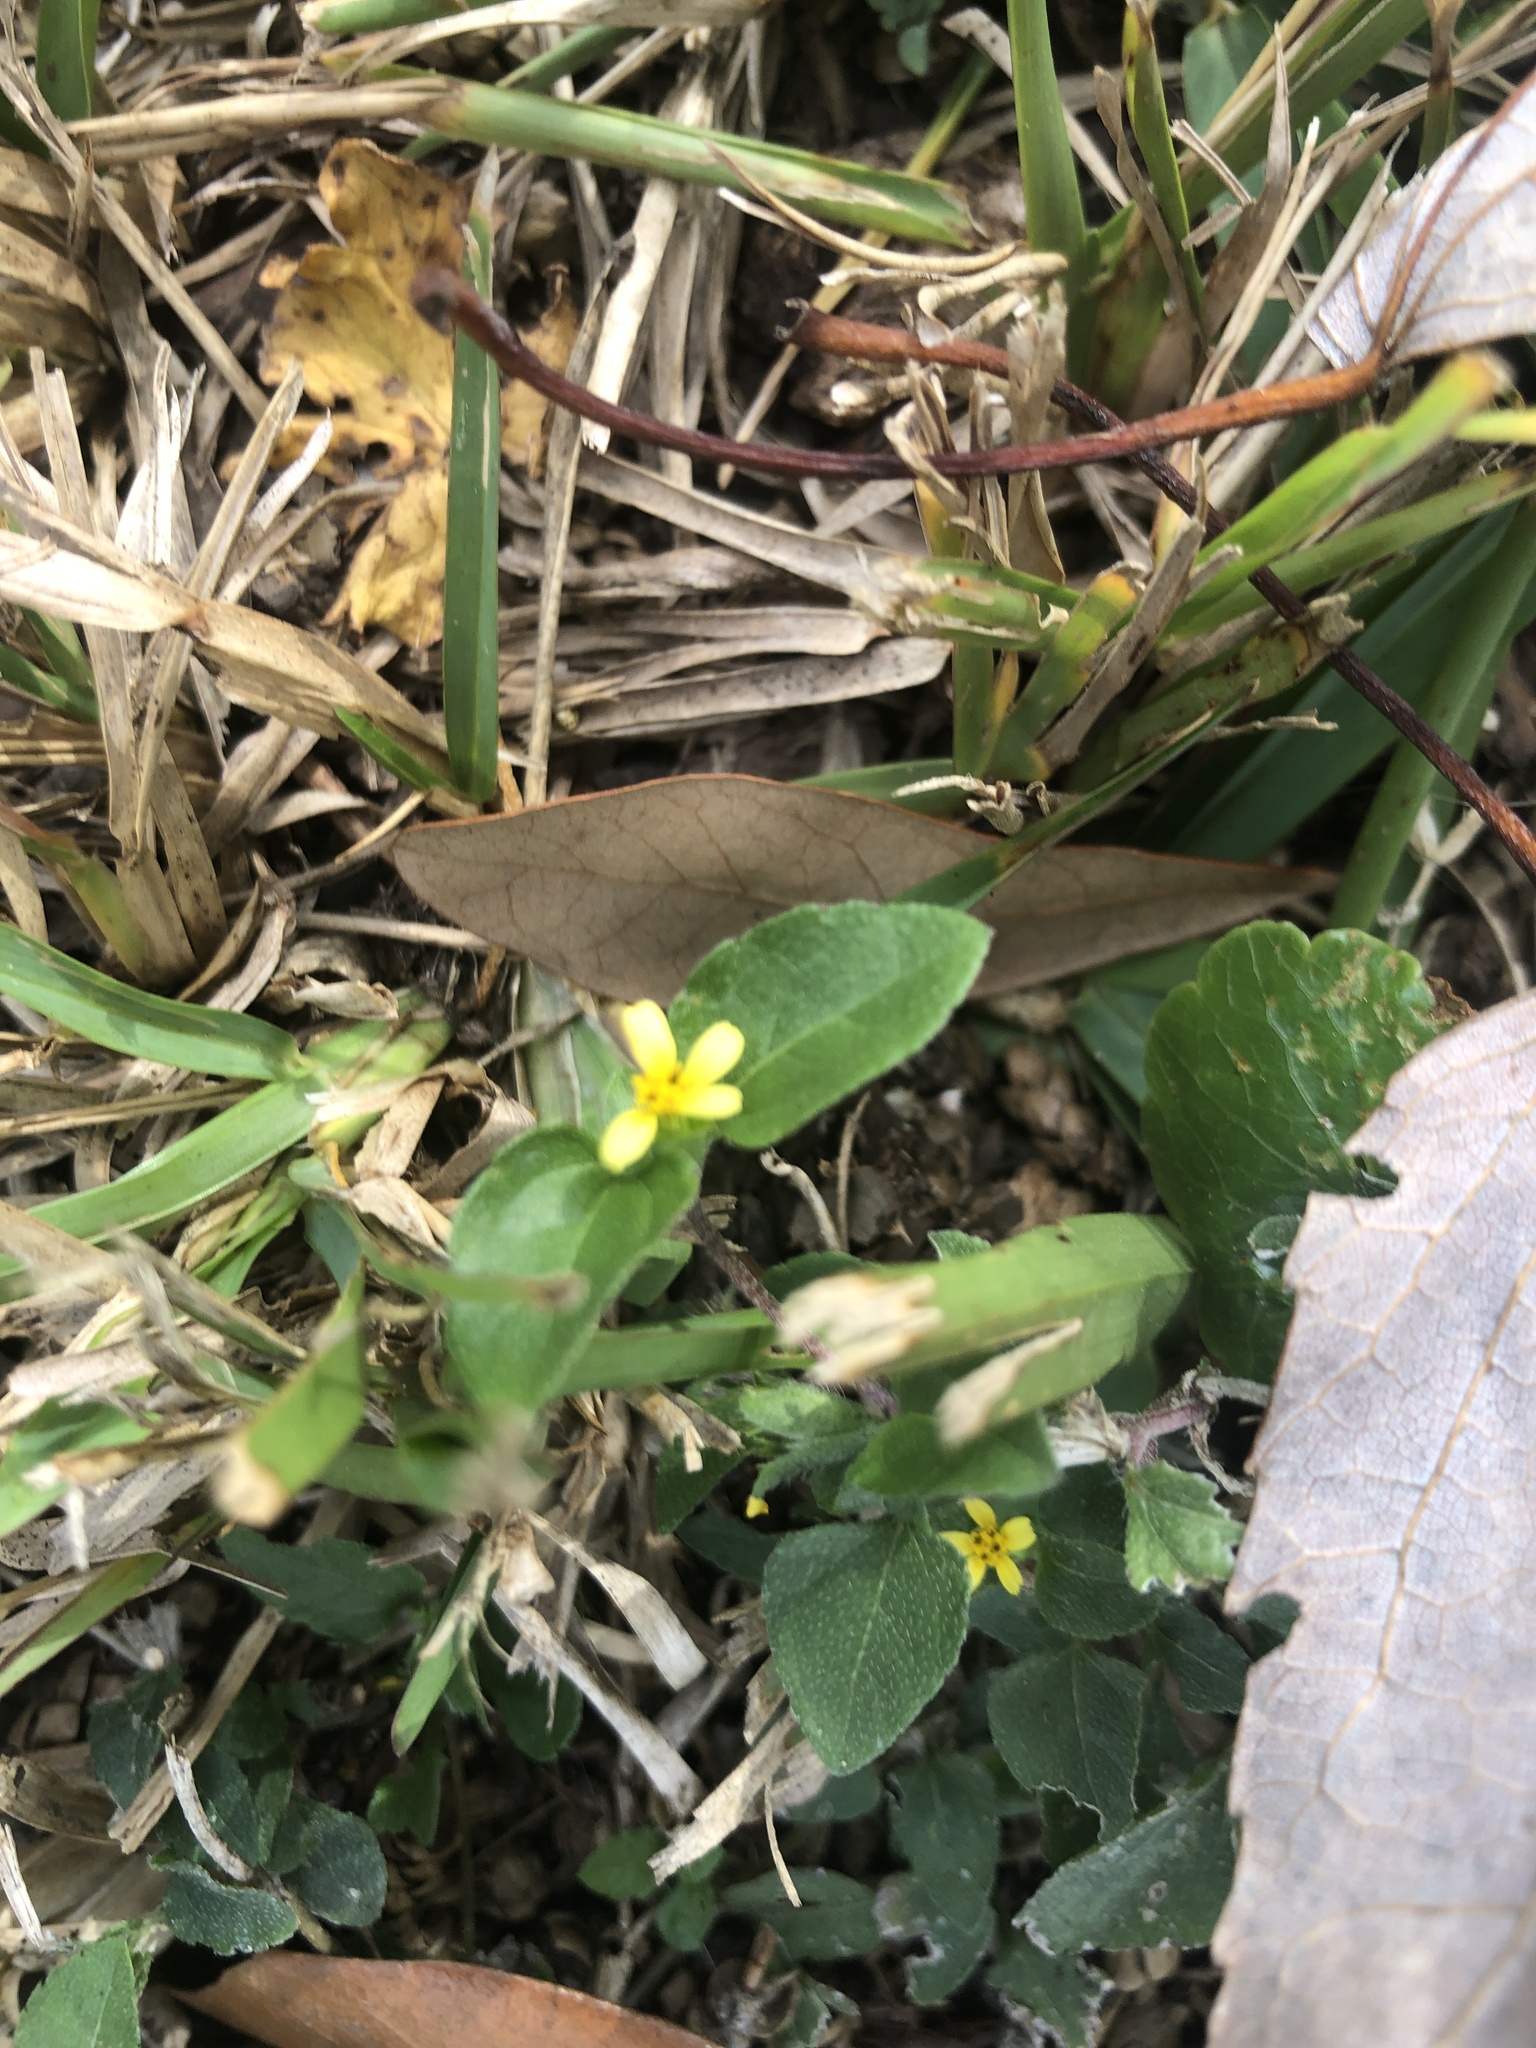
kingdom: Plantae
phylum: Tracheophyta
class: Magnoliopsida
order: Asterales
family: Asteraceae
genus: Calyptocarpus
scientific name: Calyptocarpus vialis
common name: Straggler daisy
